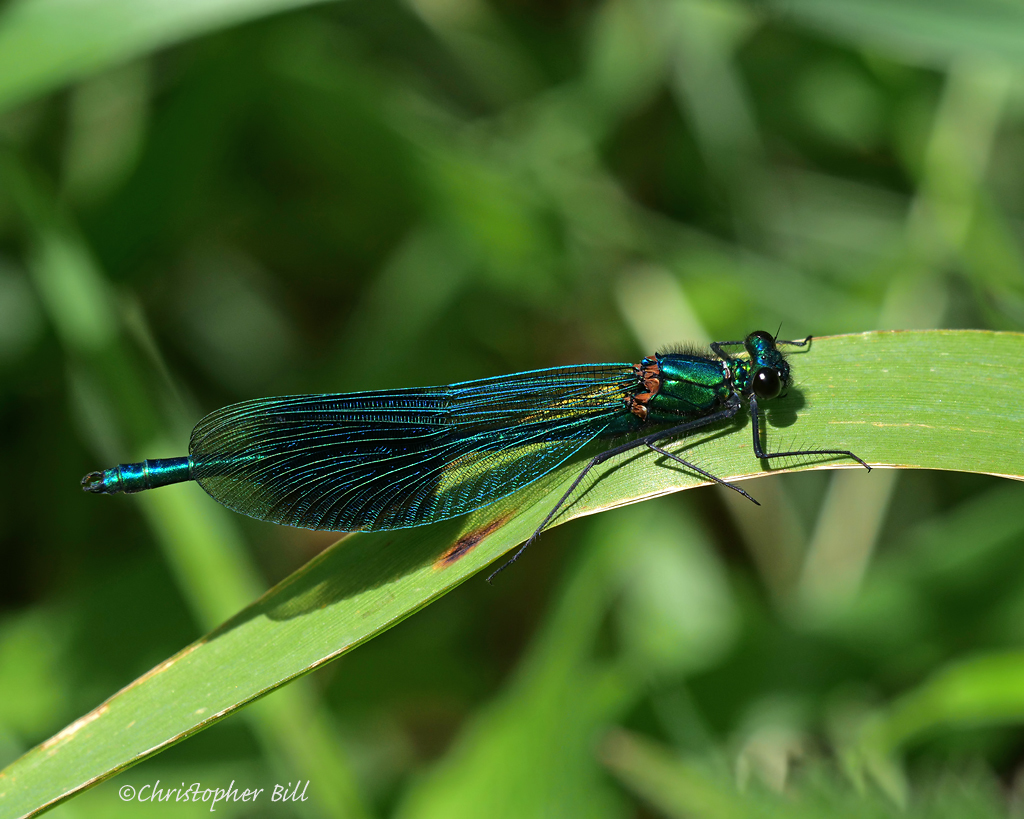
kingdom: Animalia
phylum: Arthropoda
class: Insecta
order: Odonata
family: Calopterygidae
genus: Calopteryx
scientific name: Calopteryx splendens
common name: Banded demoiselle
